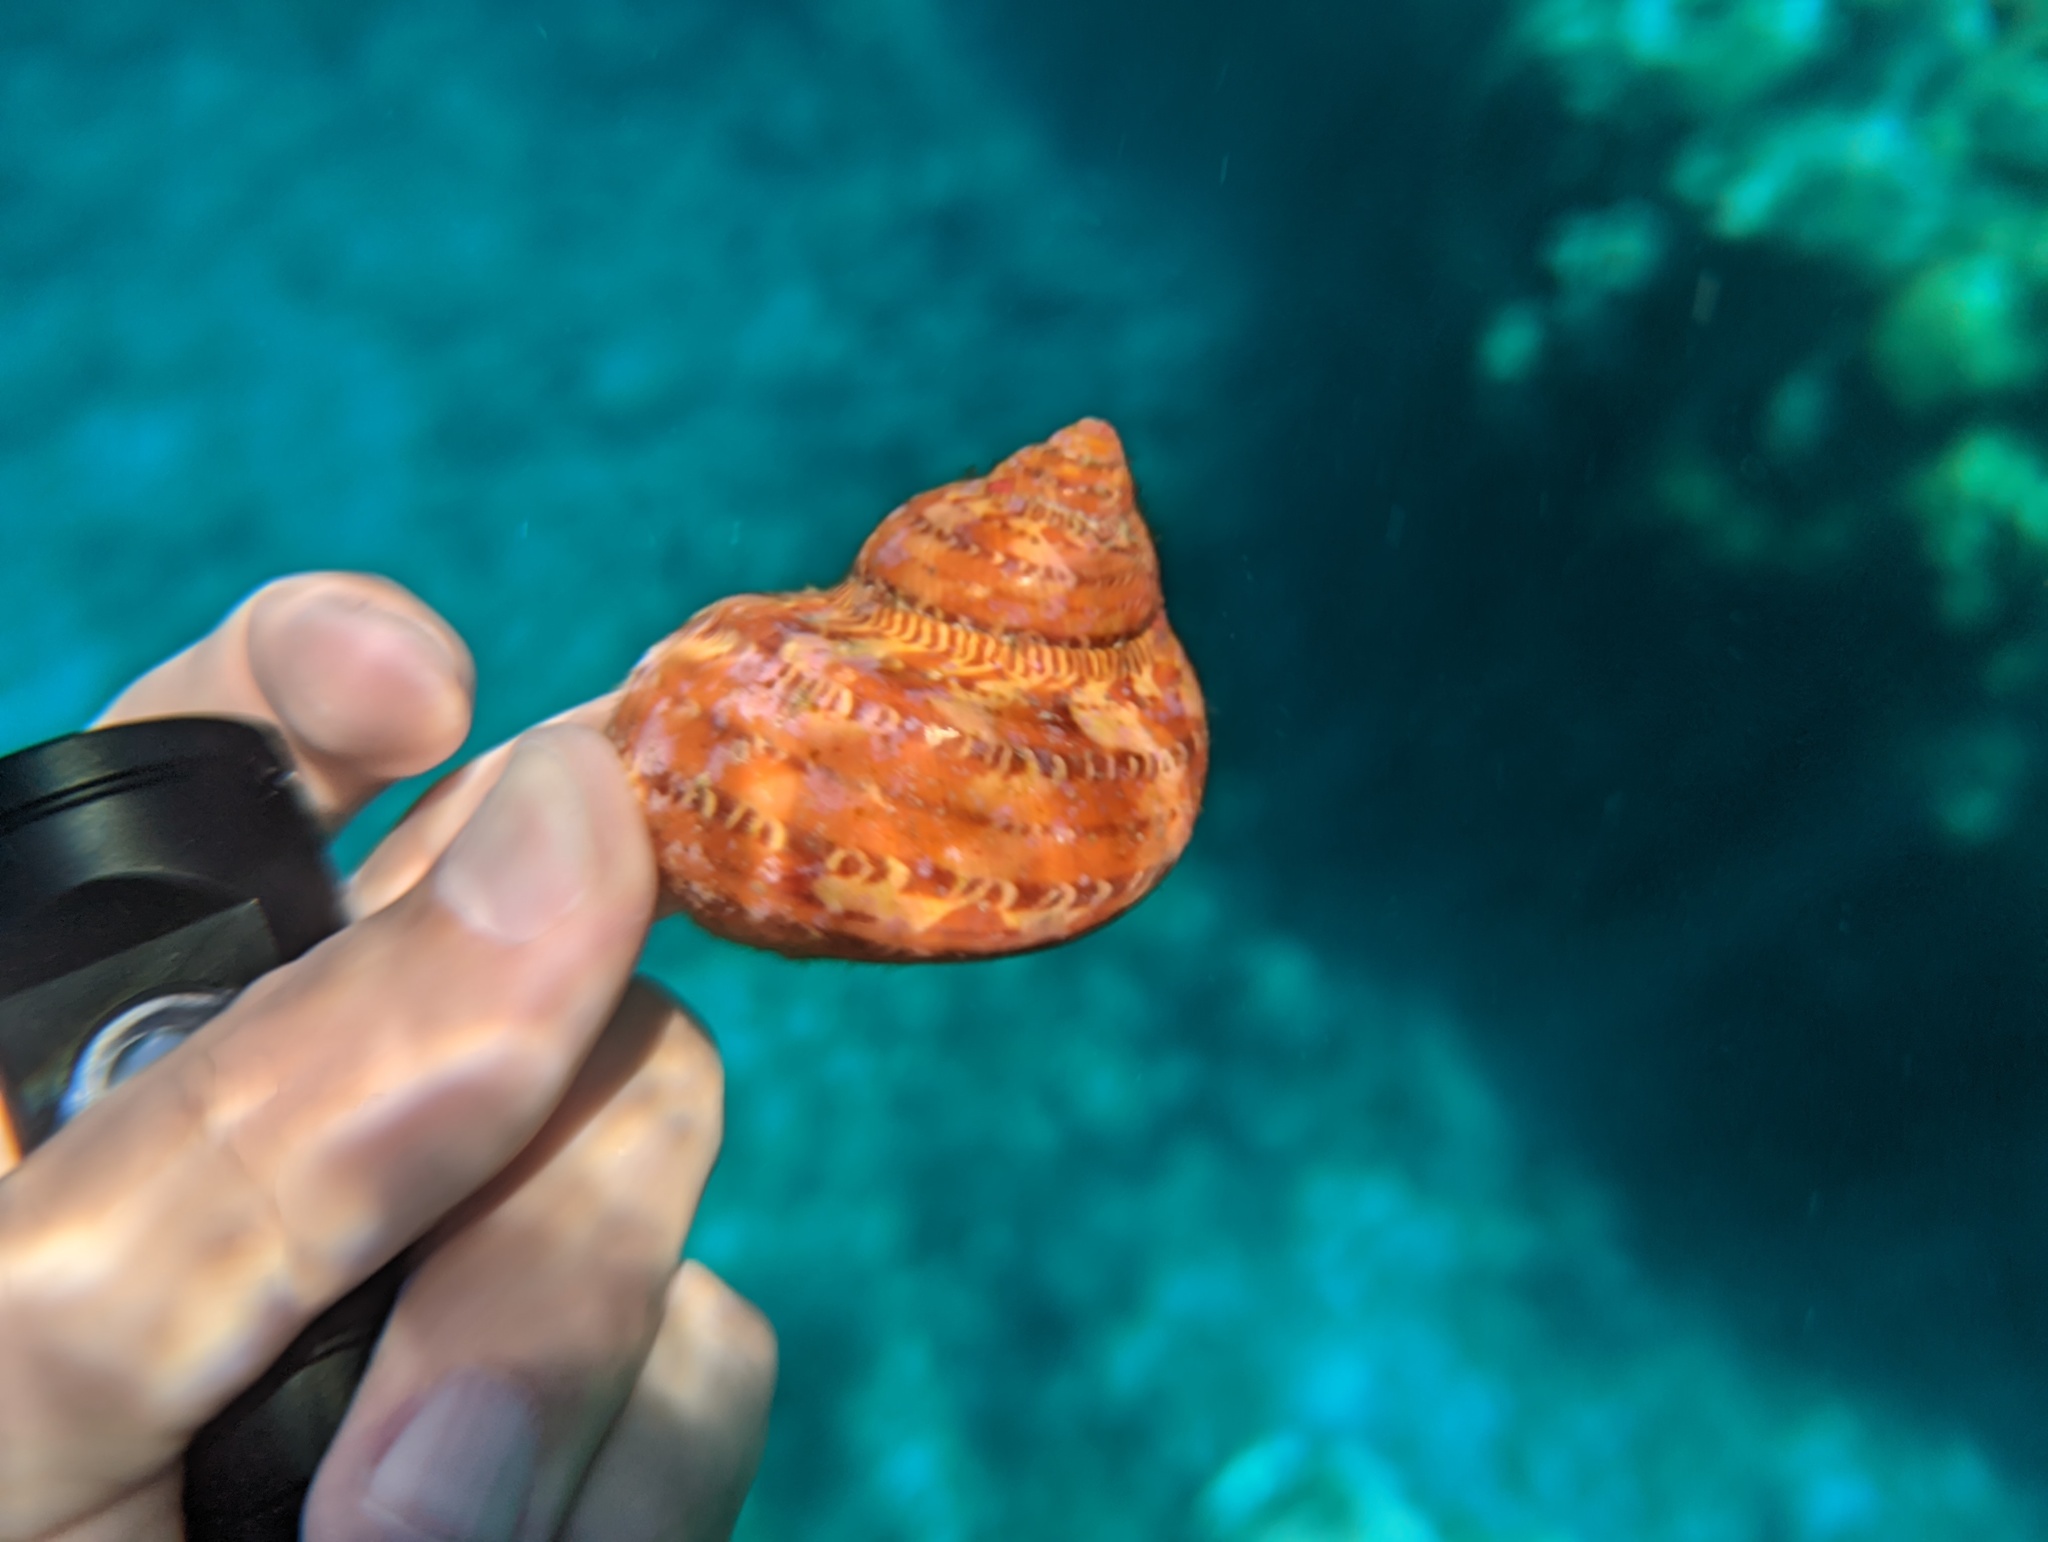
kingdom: Animalia
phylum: Mollusca
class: Gastropoda
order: Trochida
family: Turbinidae
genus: Turbo
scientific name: Turbo petholatus
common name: Cat's-eye shell
